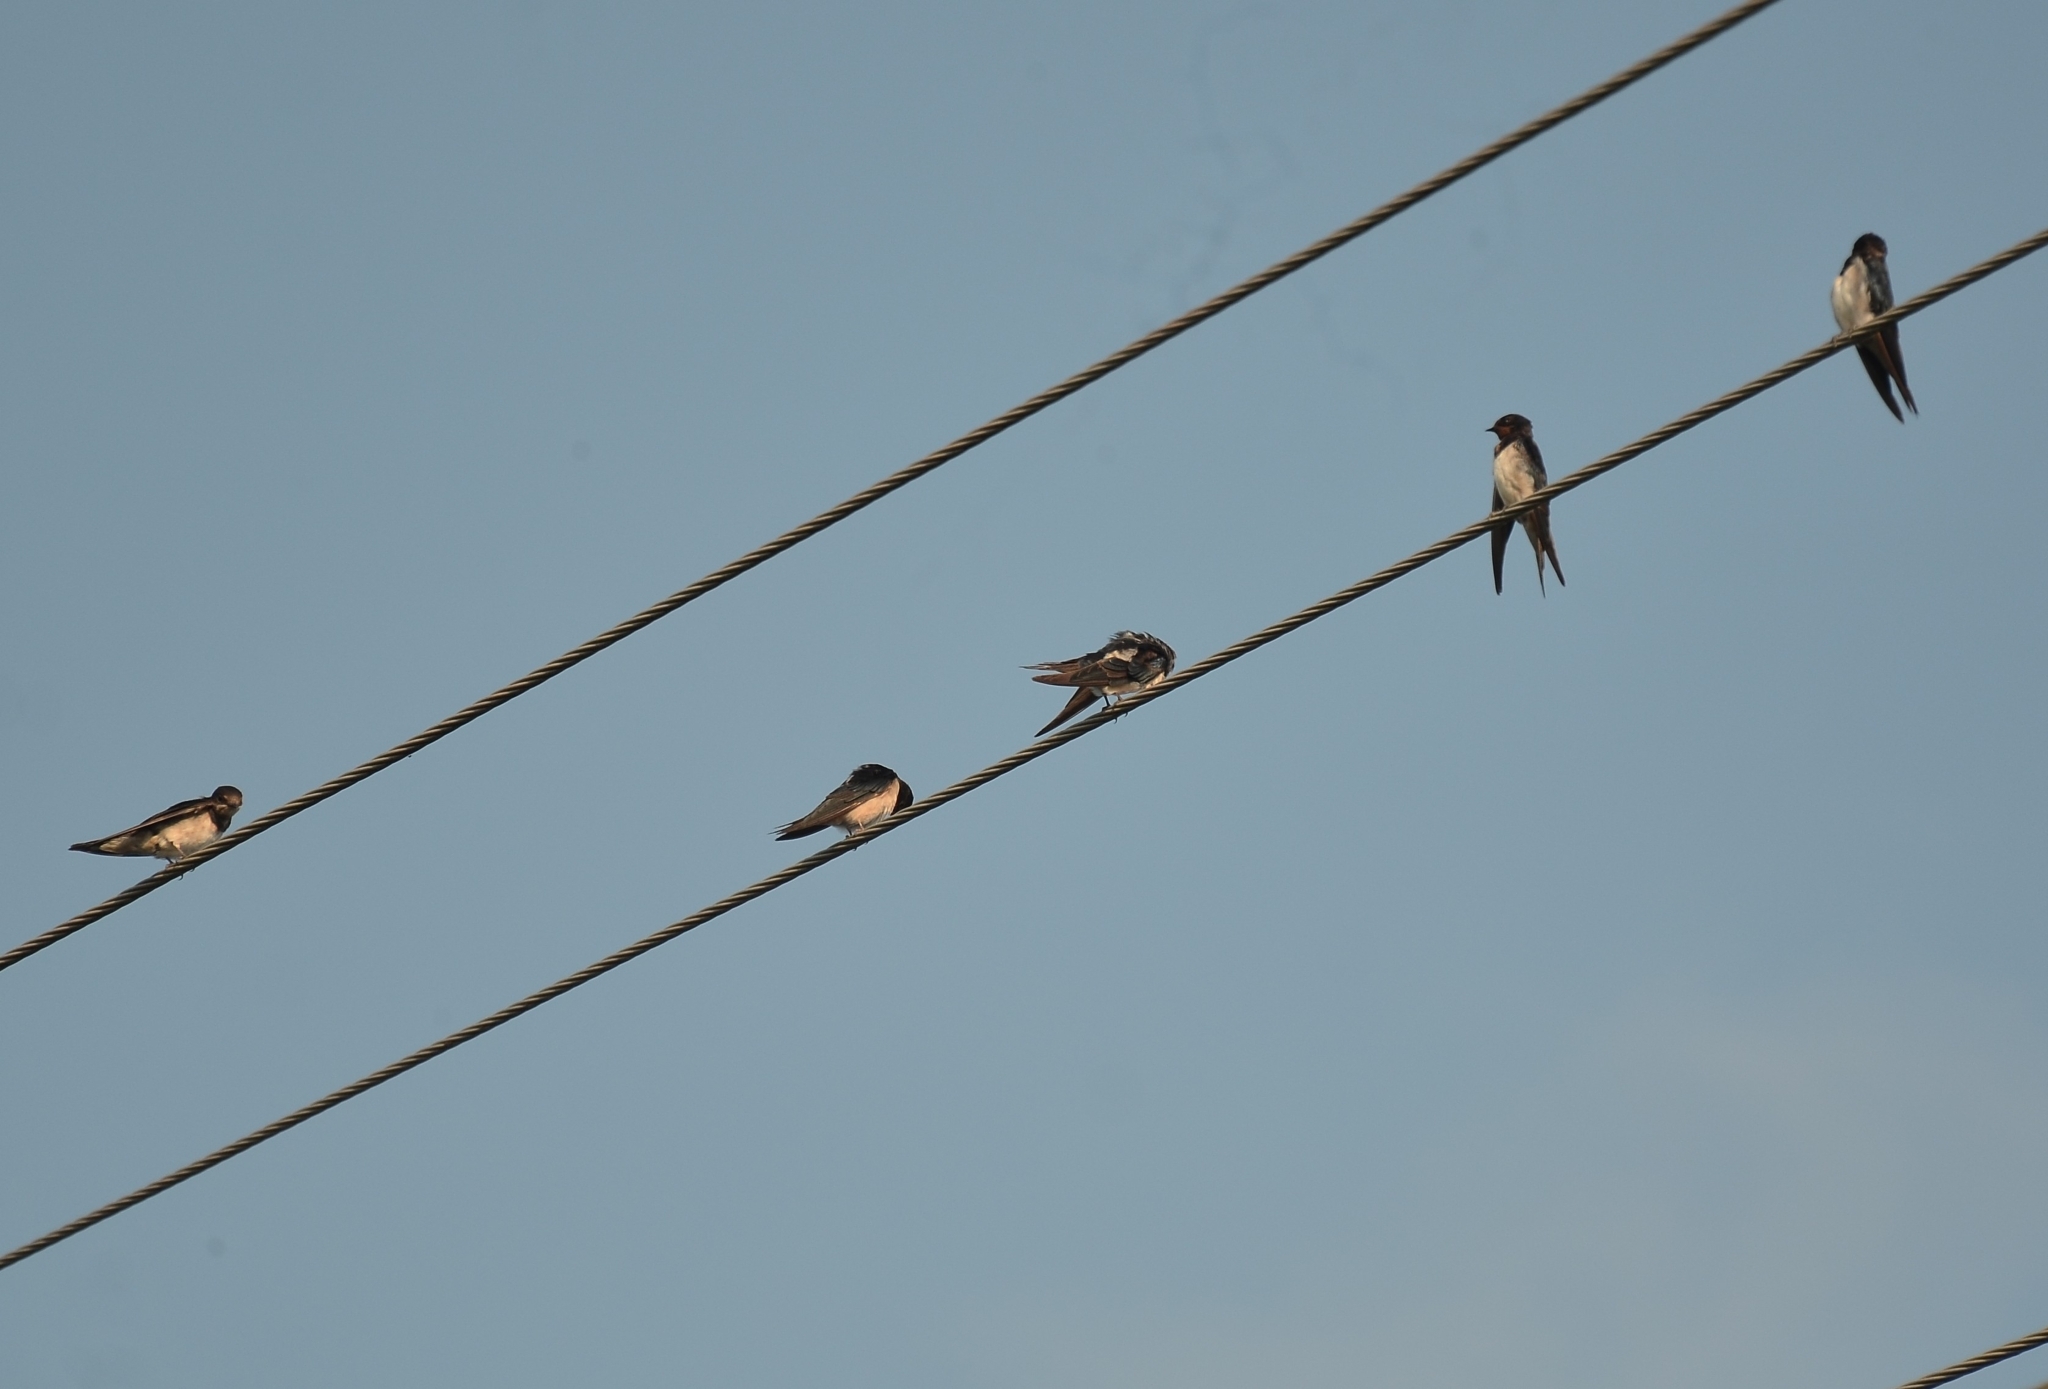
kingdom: Animalia
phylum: Chordata
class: Aves
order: Passeriformes
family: Hirundinidae
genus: Hirundo
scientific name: Hirundo rustica
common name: Barn swallow
